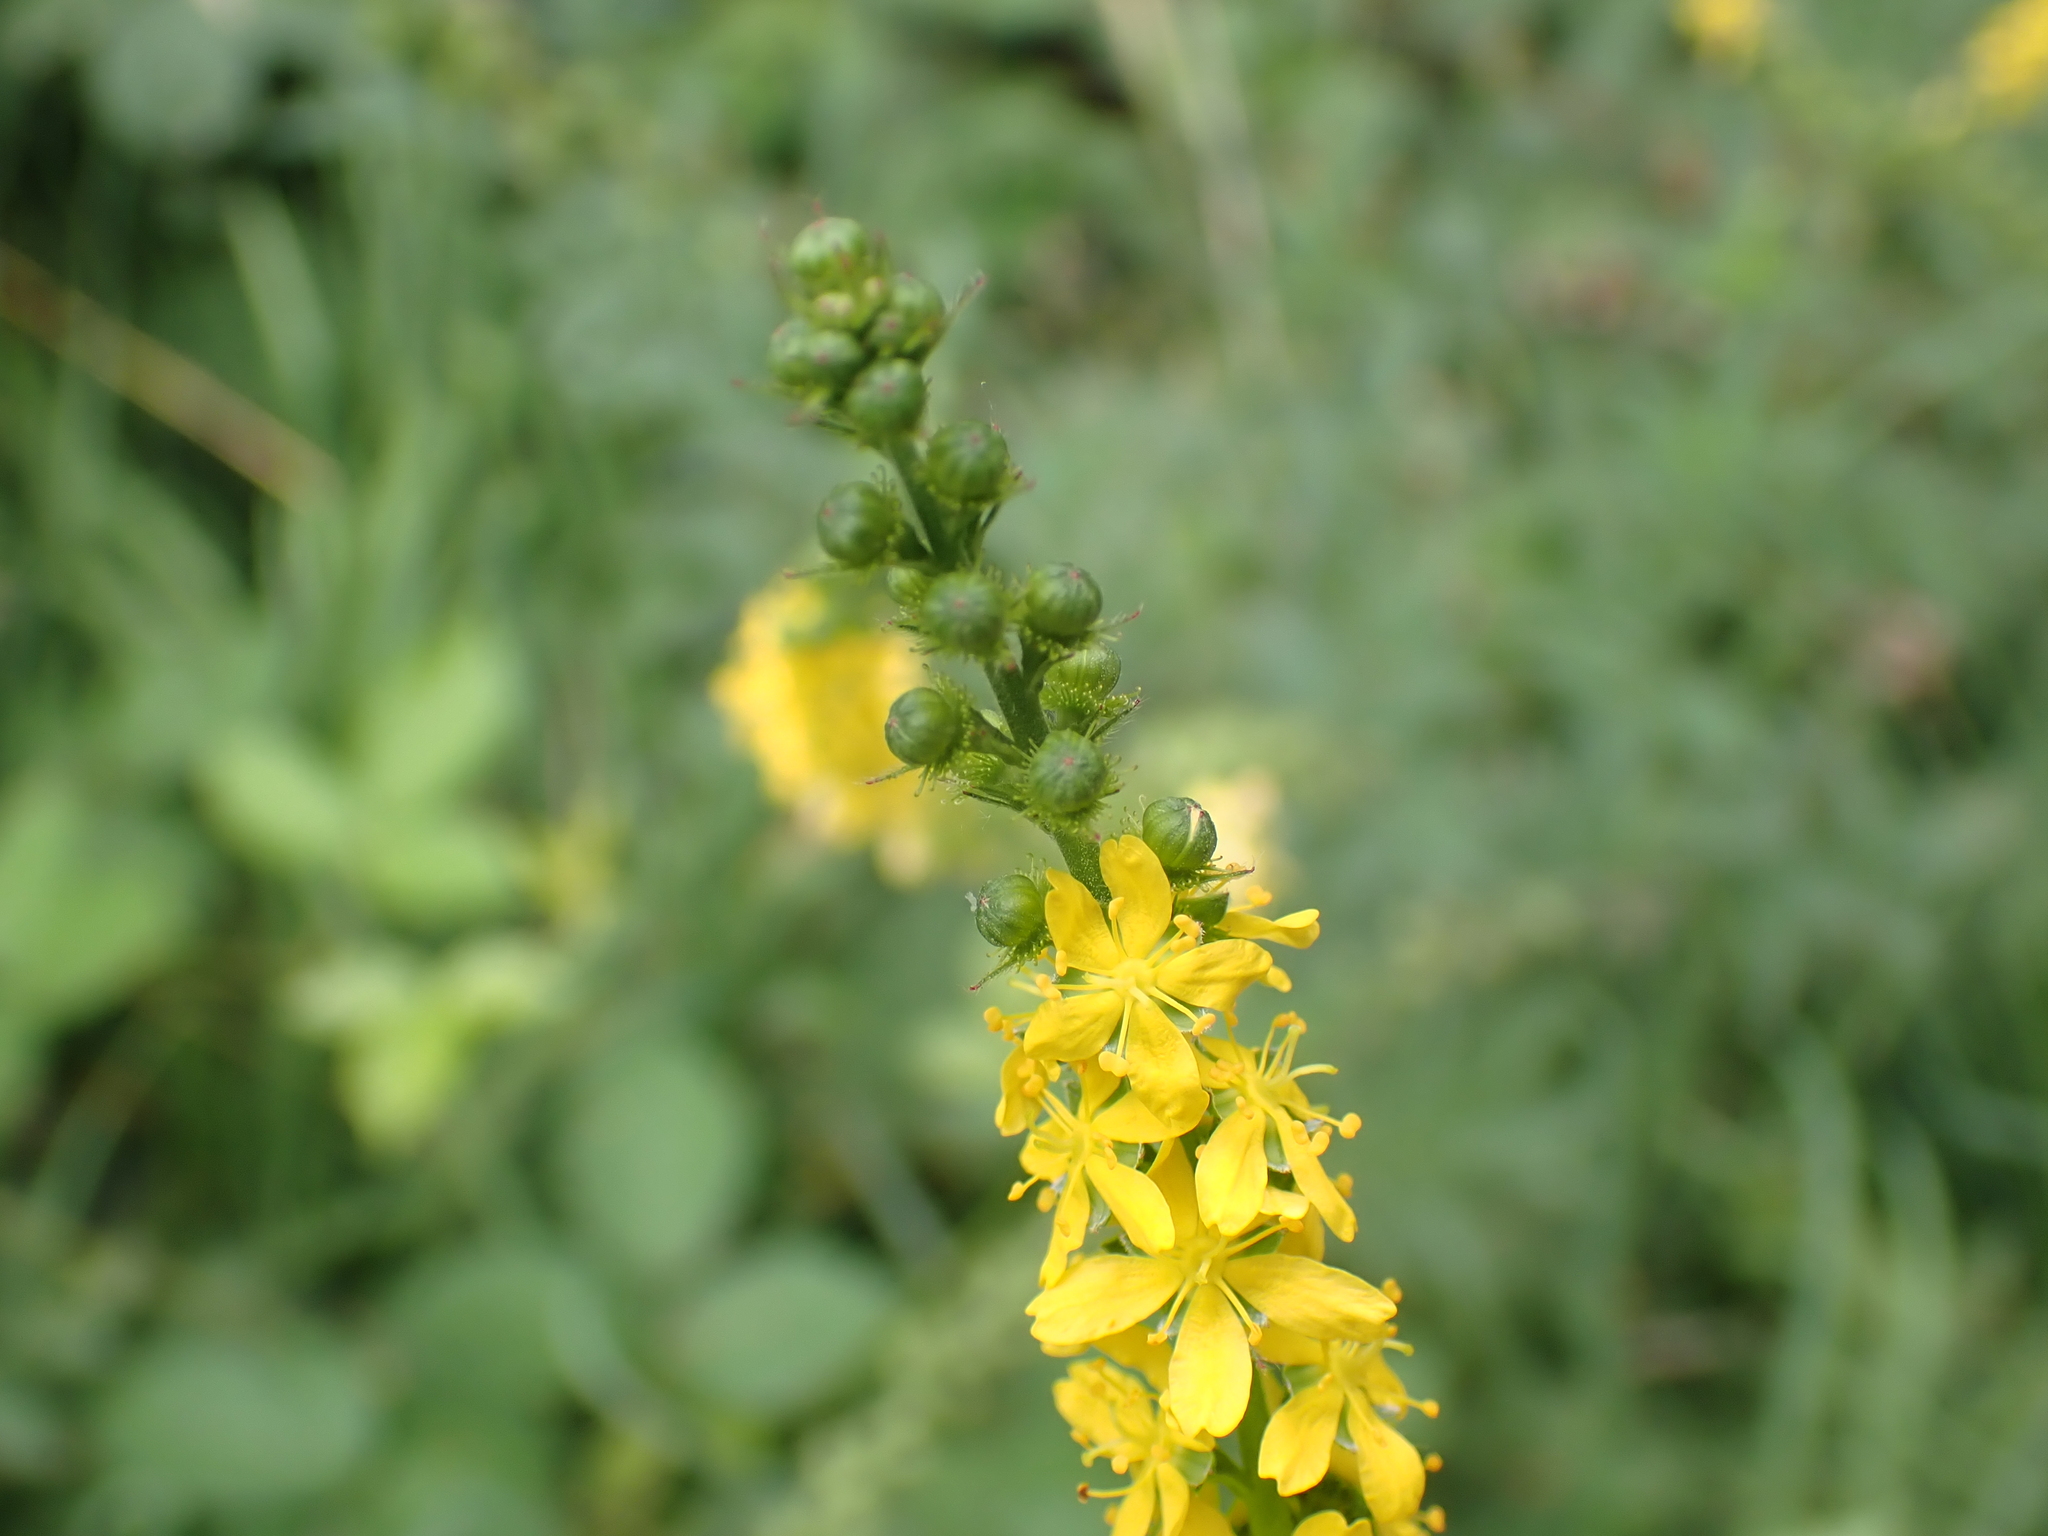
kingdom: Plantae
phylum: Tracheophyta
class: Magnoliopsida
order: Rosales
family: Rosaceae
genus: Agrimonia
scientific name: Agrimonia eupatoria
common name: Agrimony
